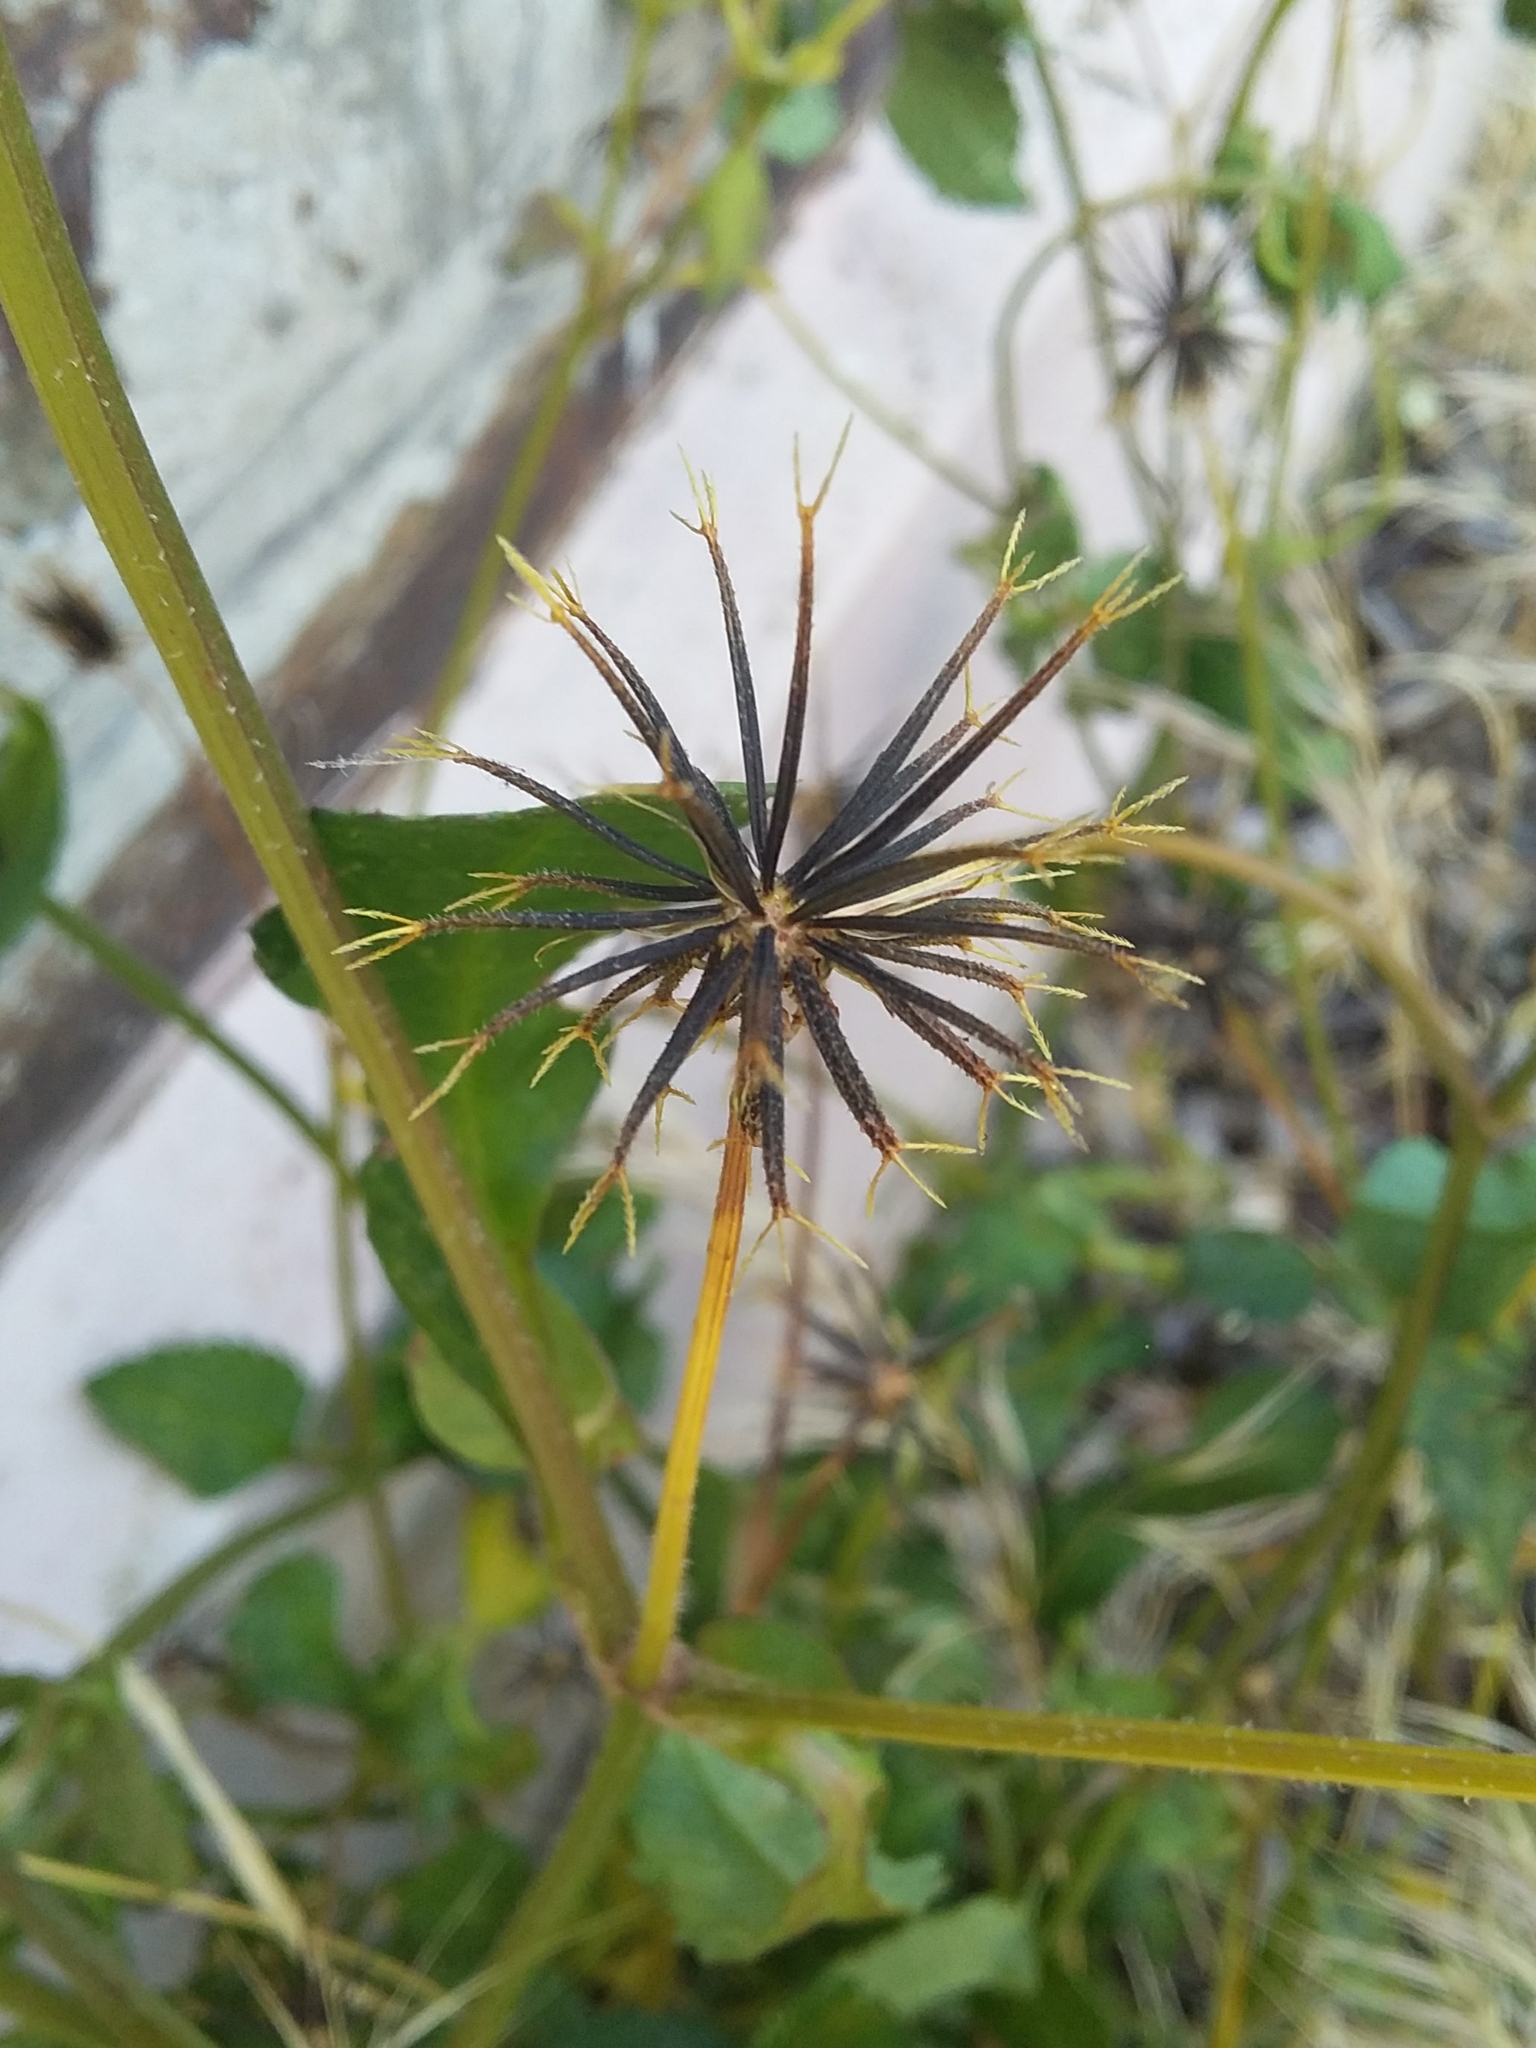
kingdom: Plantae
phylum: Tracheophyta
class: Magnoliopsida
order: Asterales
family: Asteraceae
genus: Bidens
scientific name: Bidens pilosa
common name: Black-jack
